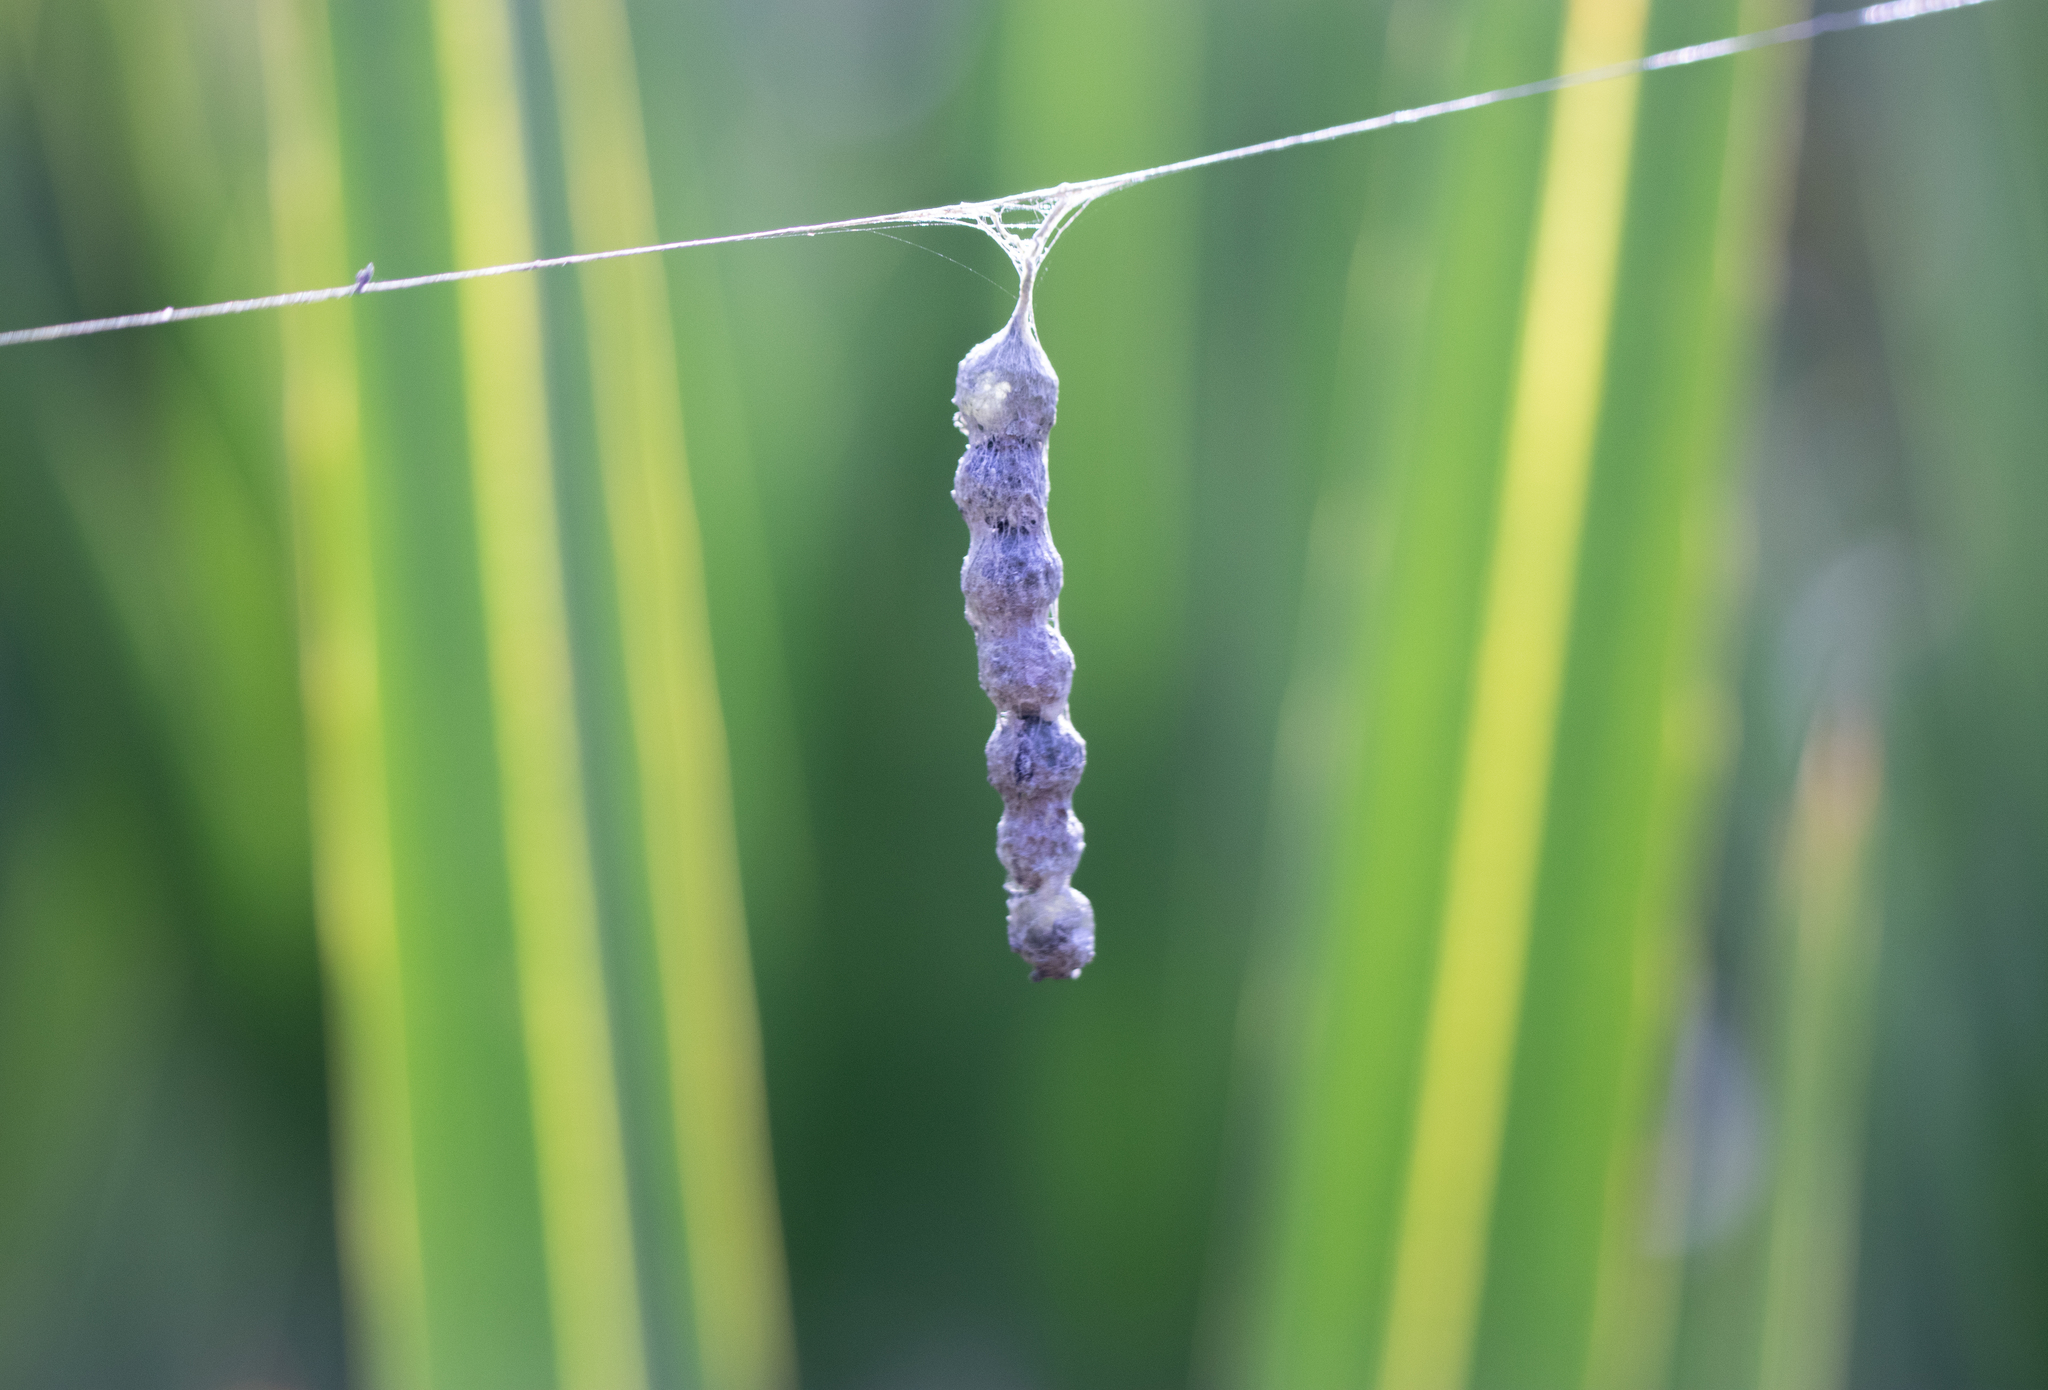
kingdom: Animalia
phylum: Arthropoda
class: Arachnida
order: Araneae
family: Araneidae
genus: Mecynogea
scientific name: Mecynogea lemniscata
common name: Orb weavers
